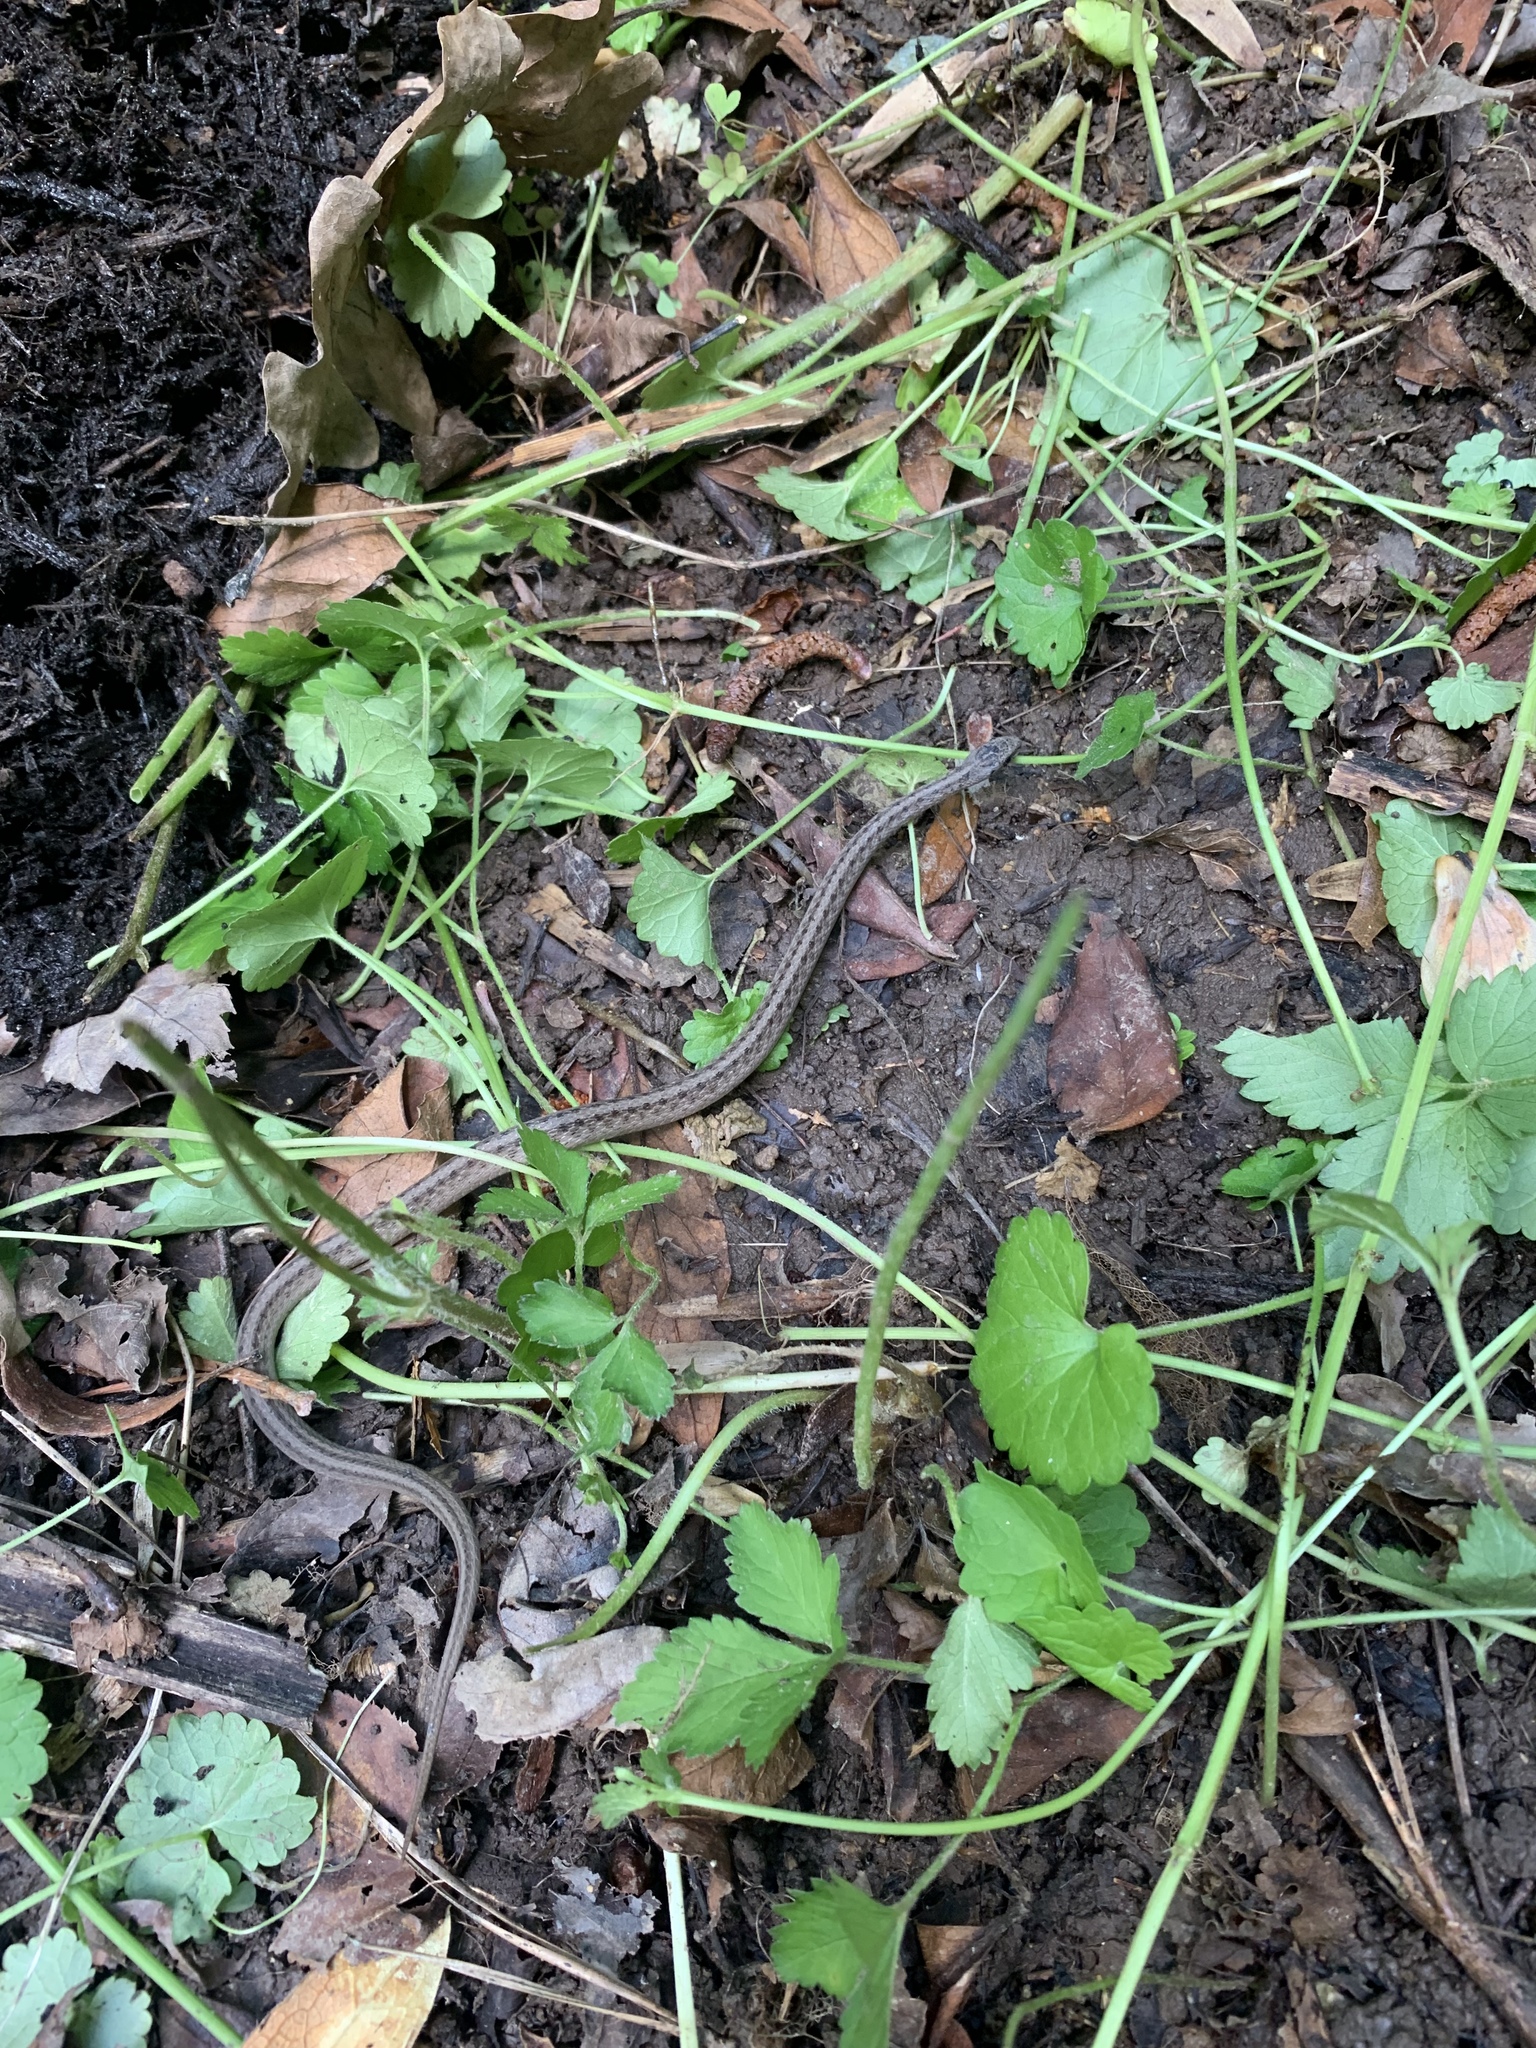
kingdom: Animalia
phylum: Chordata
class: Squamata
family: Colubridae
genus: Storeria
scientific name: Storeria dekayi
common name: (dekay’s) brown snake
